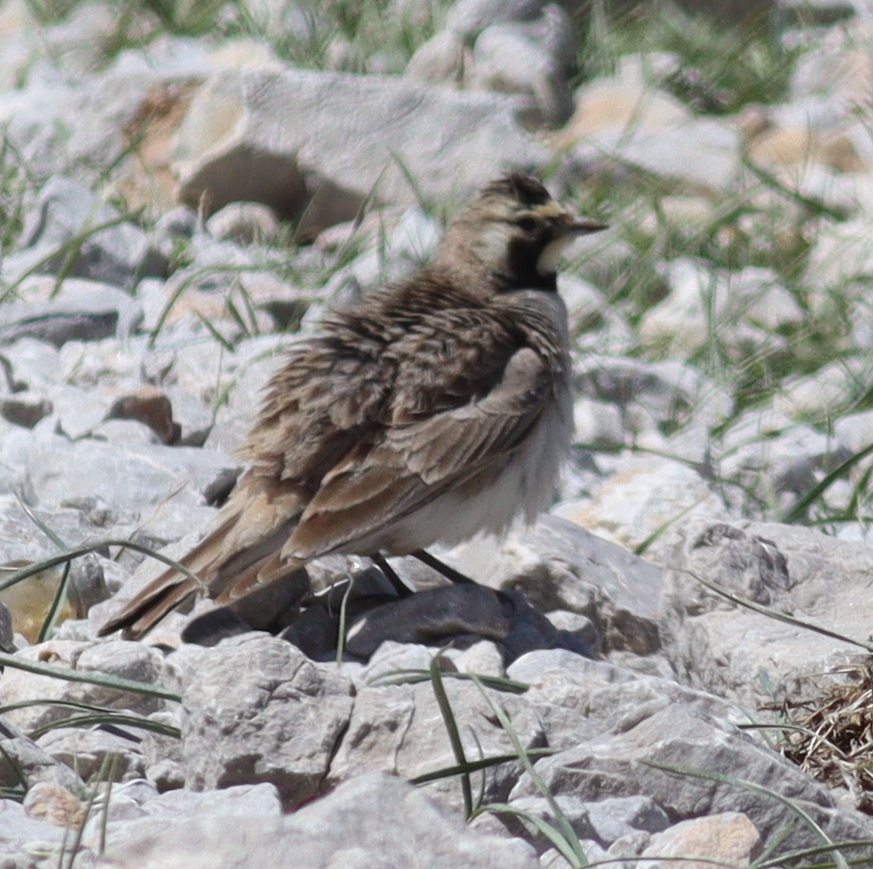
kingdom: Animalia
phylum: Chordata
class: Aves
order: Passeriformes
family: Alaudidae
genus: Eremophila
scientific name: Eremophila alpestris
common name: Horned lark
